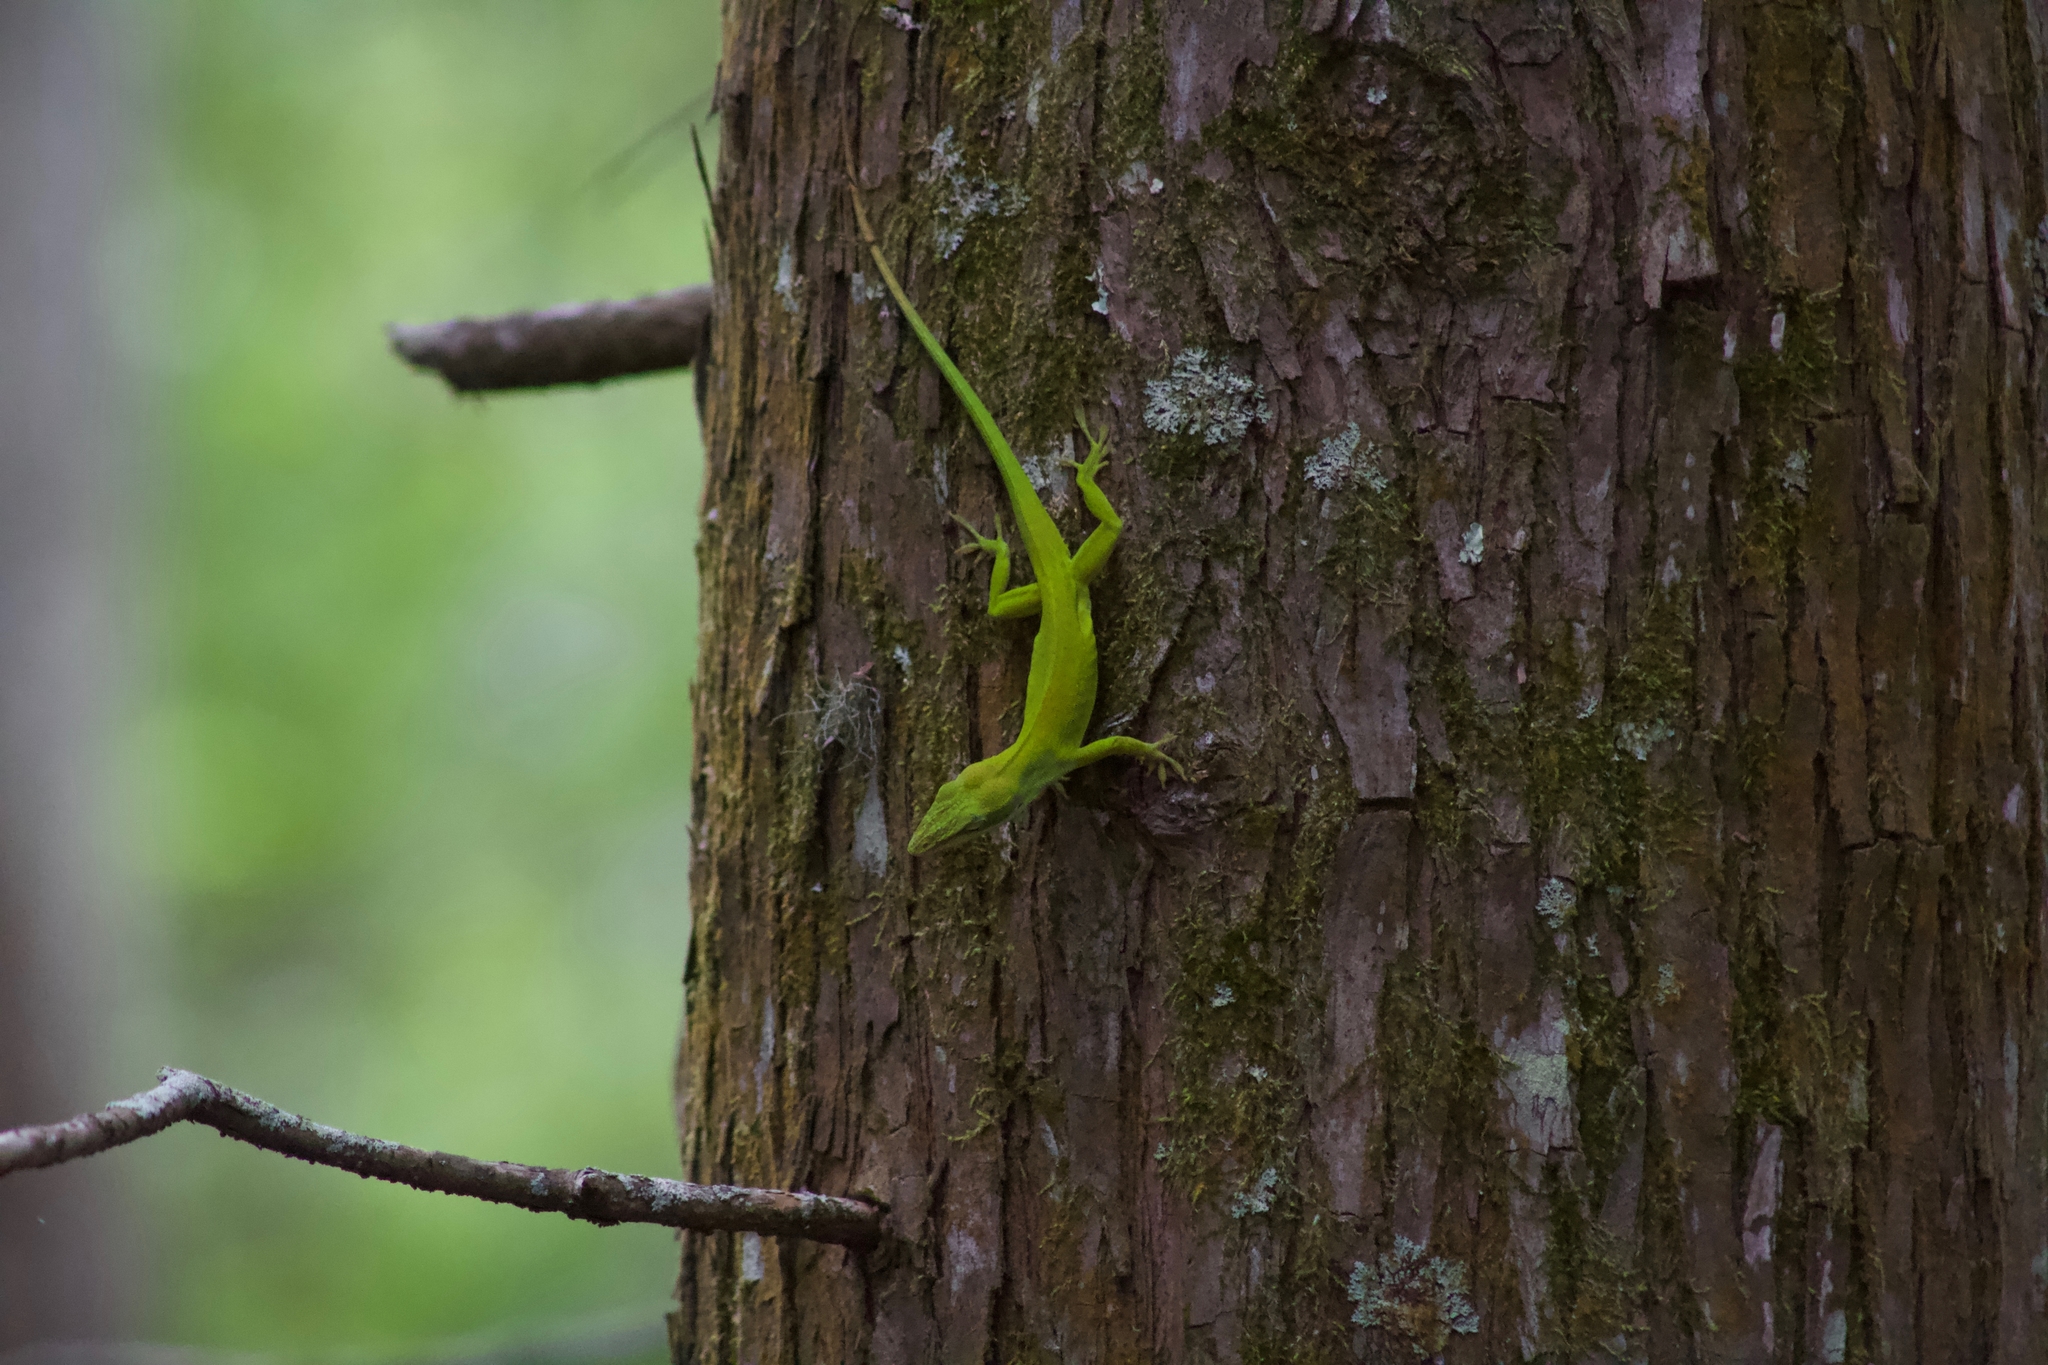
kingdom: Animalia
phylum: Chordata
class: Squamata
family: Dactyloidae
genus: Anolis
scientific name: Anolis carolinensis
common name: Green anole
